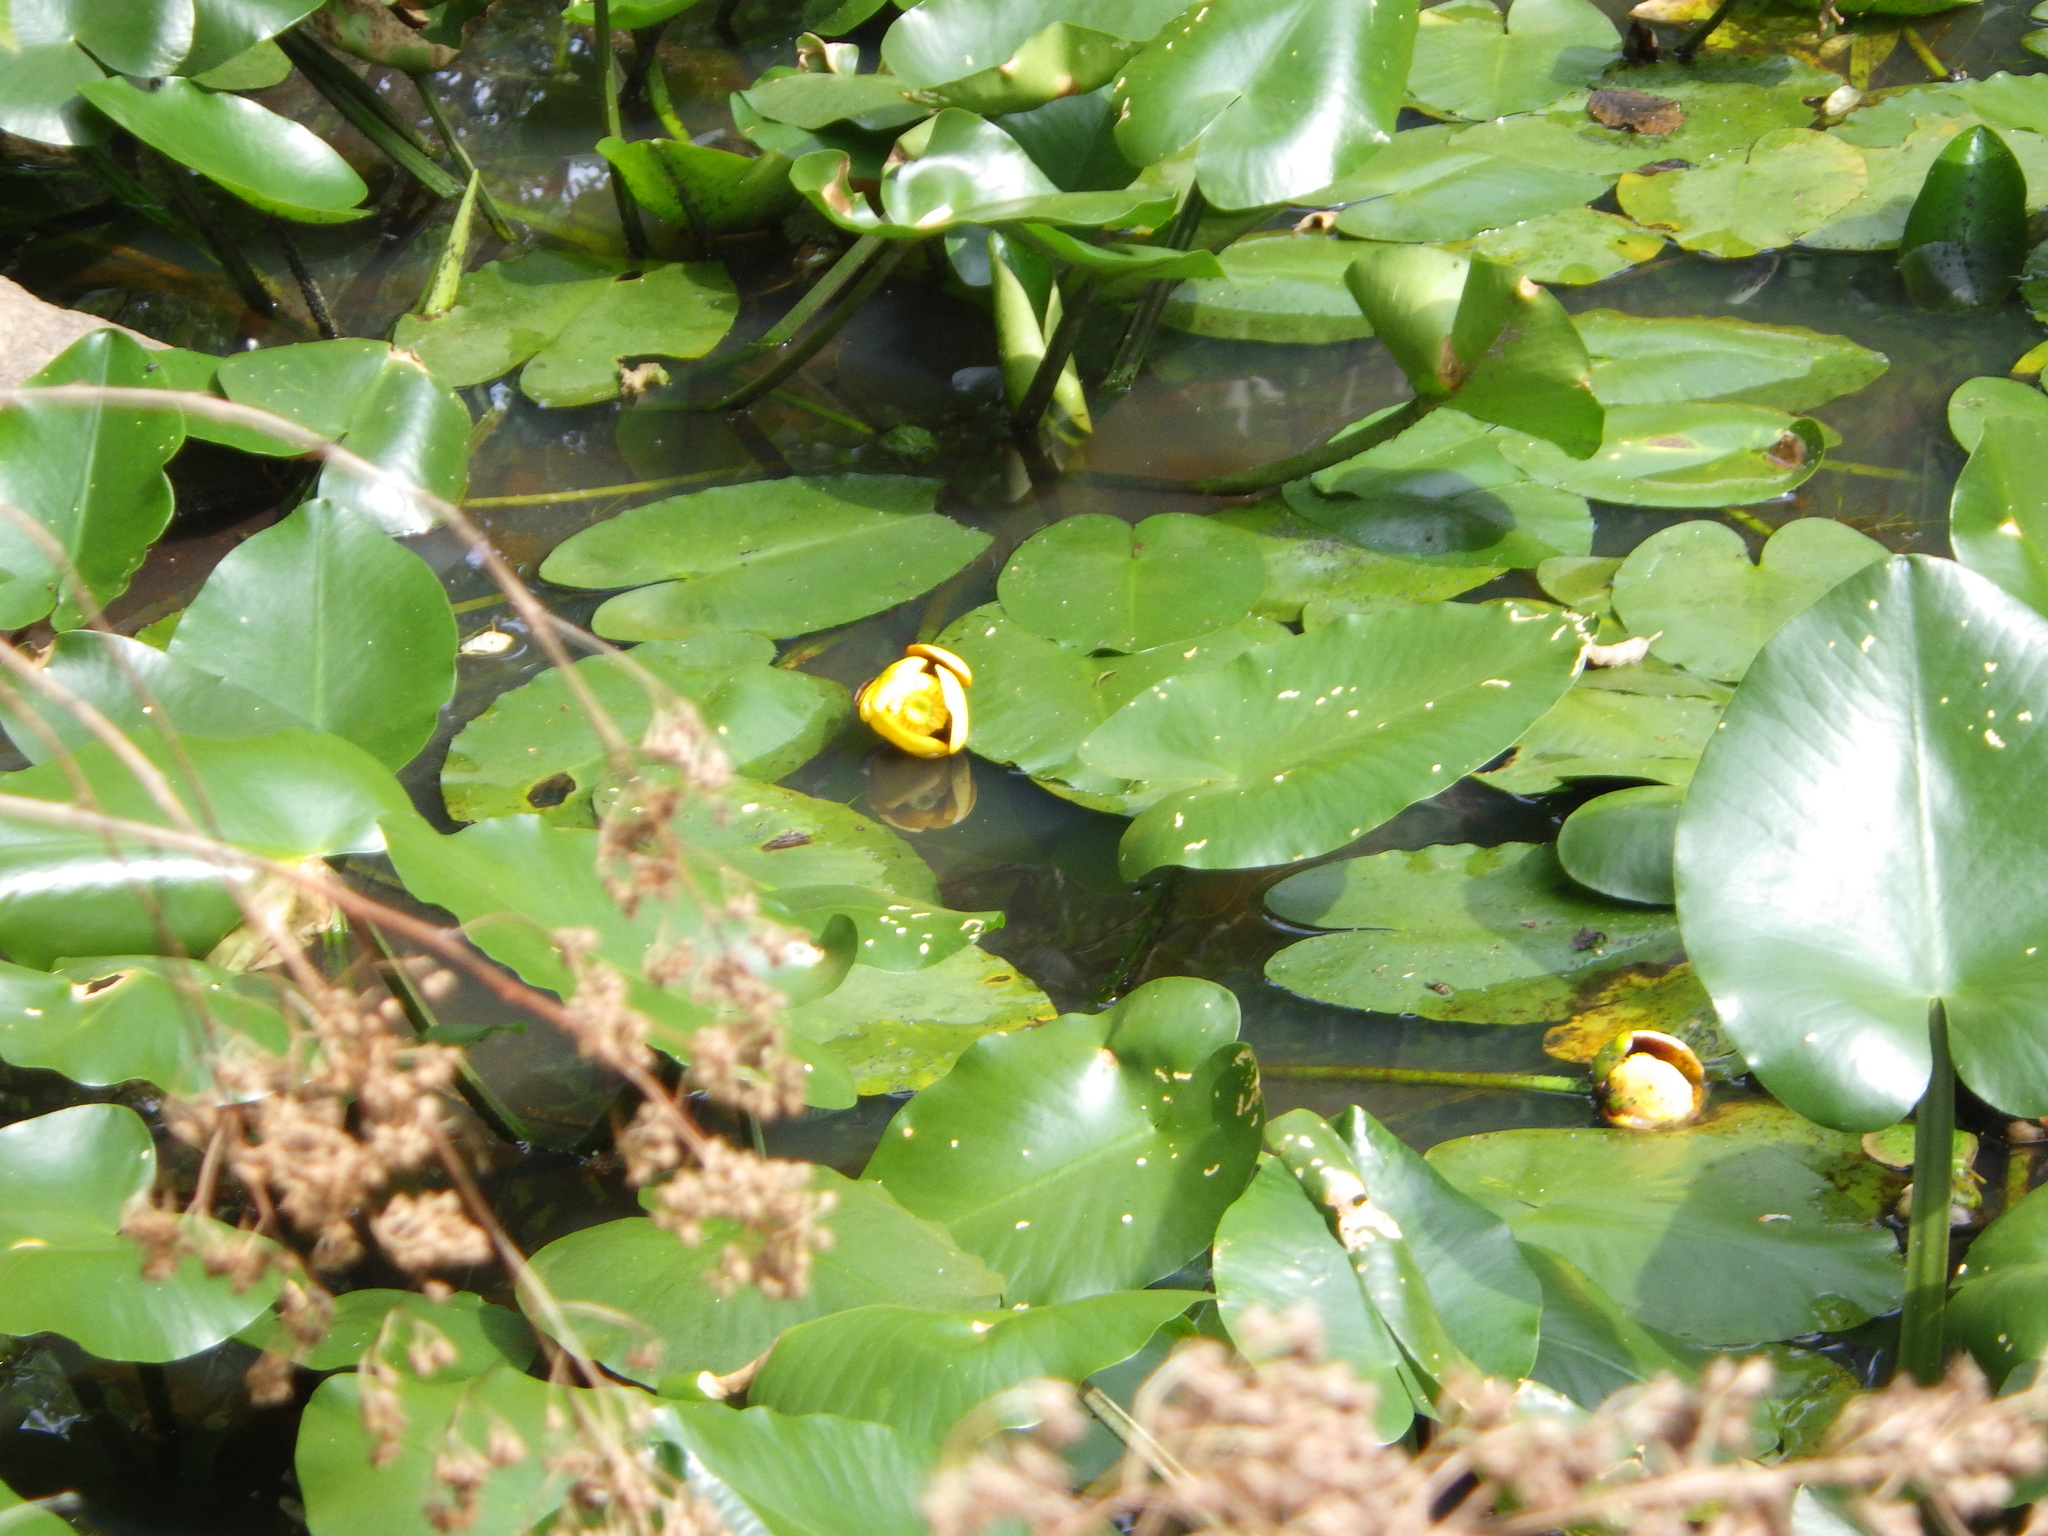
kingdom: Plantae
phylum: Tracheophyta
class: Magnoliopsida
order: Nymphaeales
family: Nymphaeaceae
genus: Nuphar
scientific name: Nuphar variegata
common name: Beaver-root
